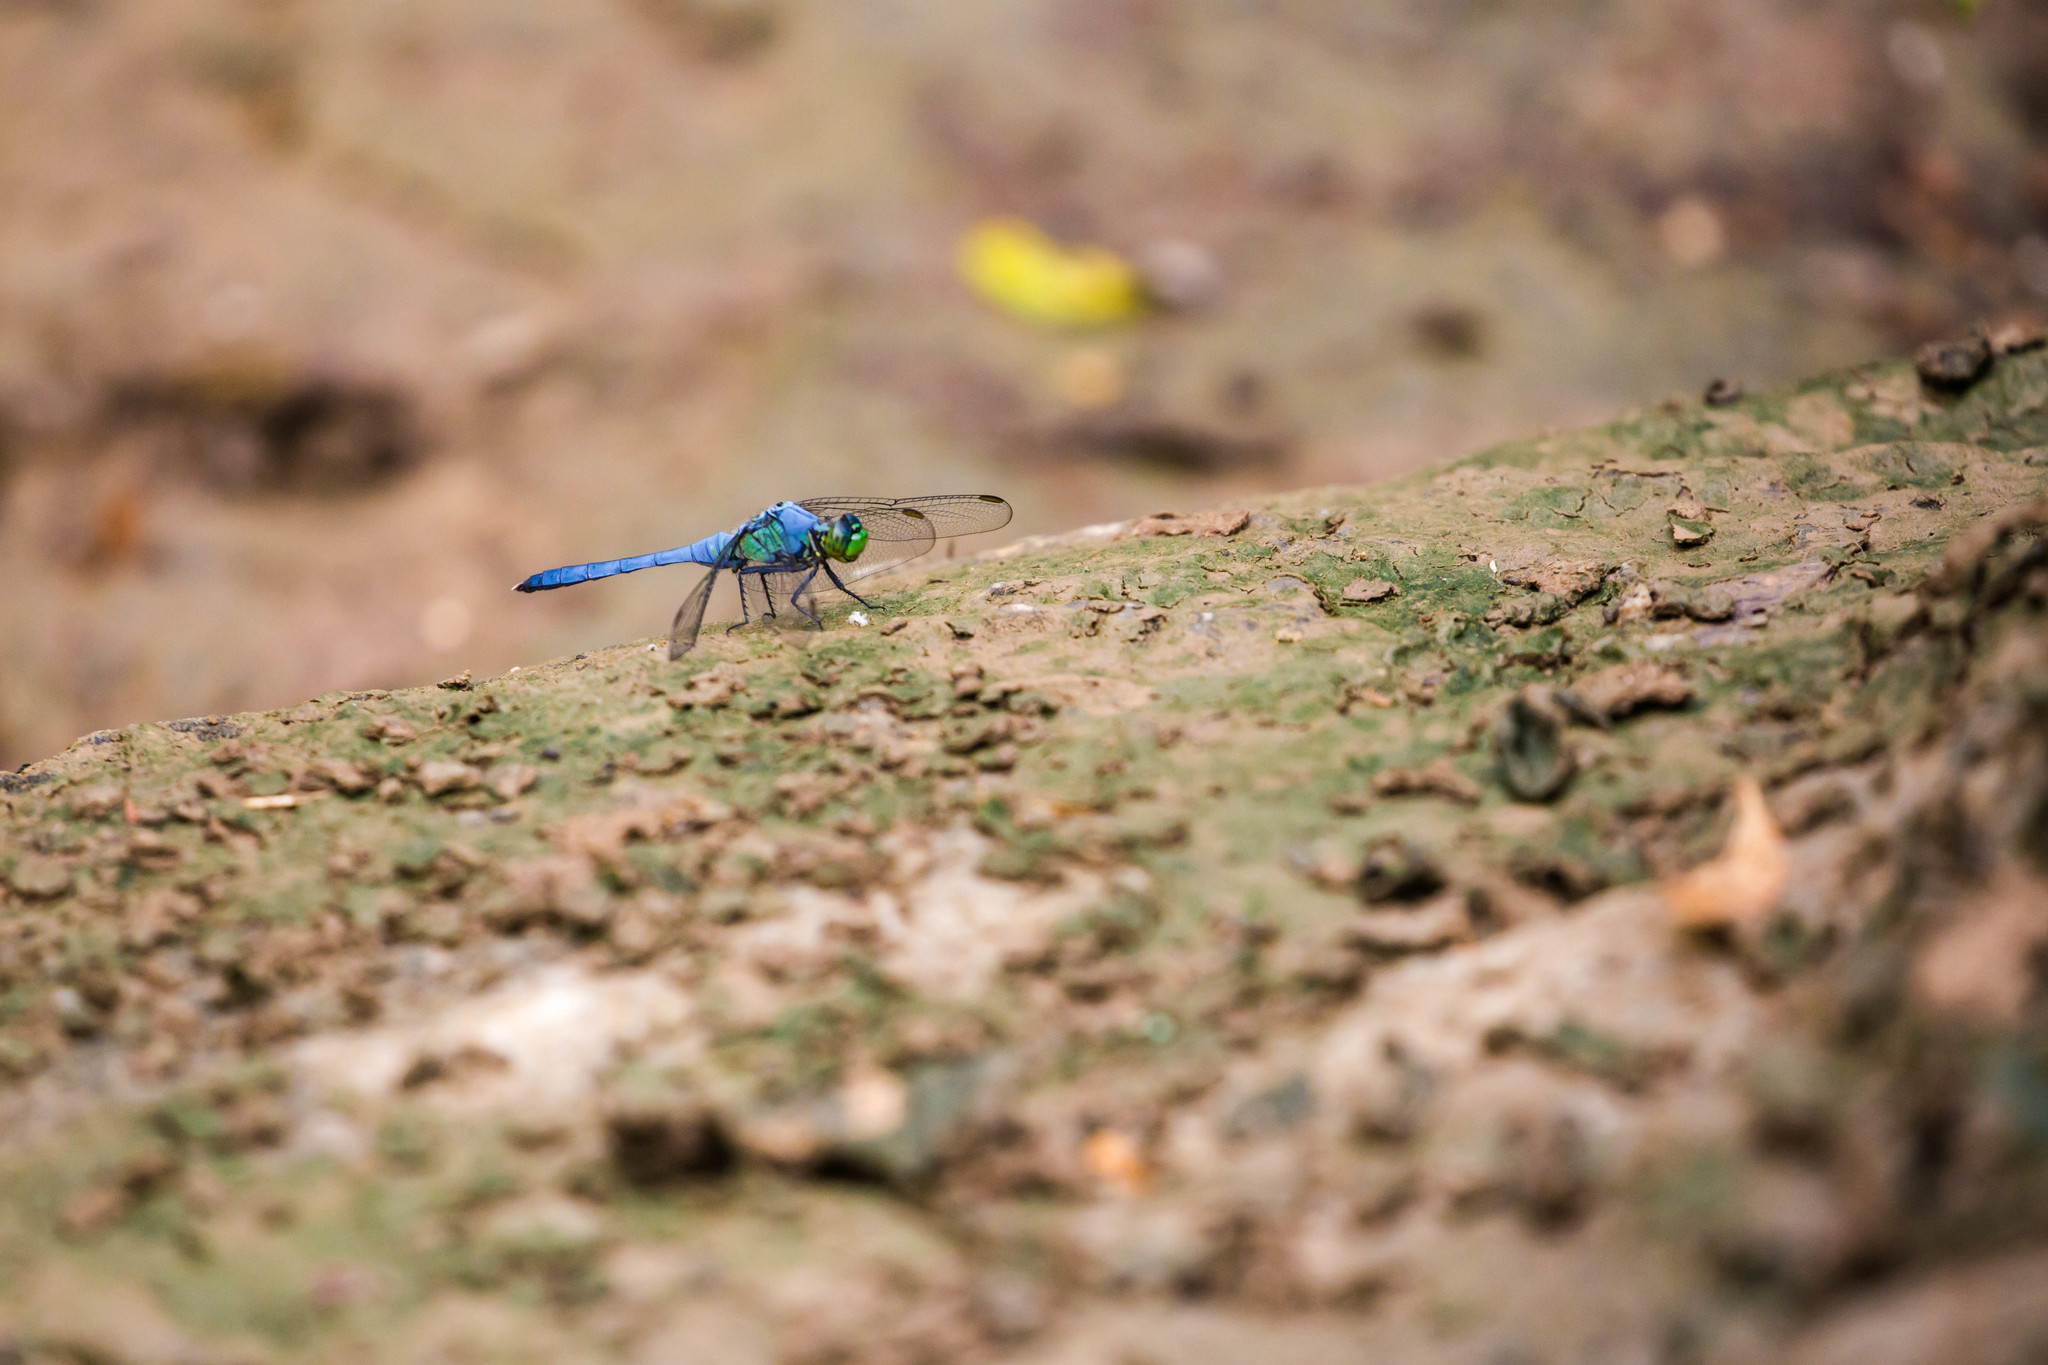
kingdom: Animalia
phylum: Arthropoda
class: Insecta
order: Odonata
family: Libellulidae
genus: Erythemis
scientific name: Erythemis simplicicollis
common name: Eastern pondhawk
